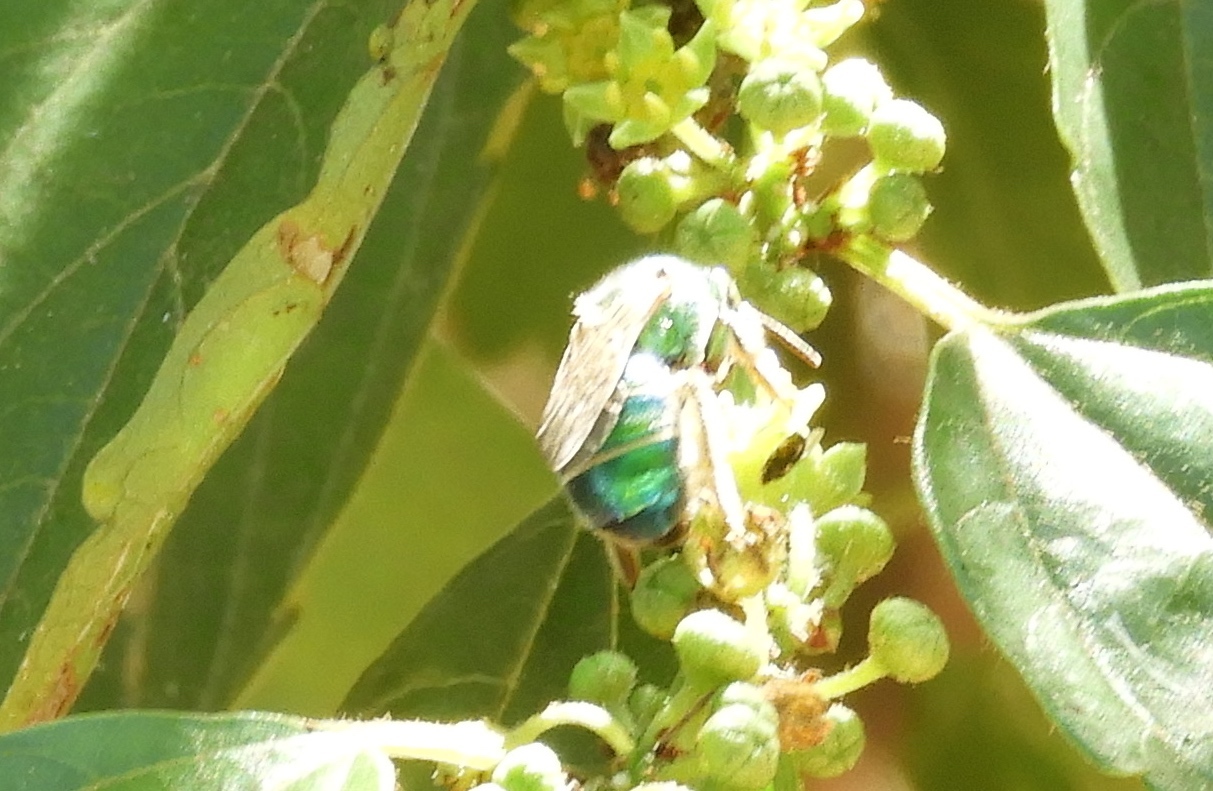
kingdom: Animalia
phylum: Arthropoda
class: Insecta
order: Hymenoptera
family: Halictidae
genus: Augochloropsis
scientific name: Augochloropsis
